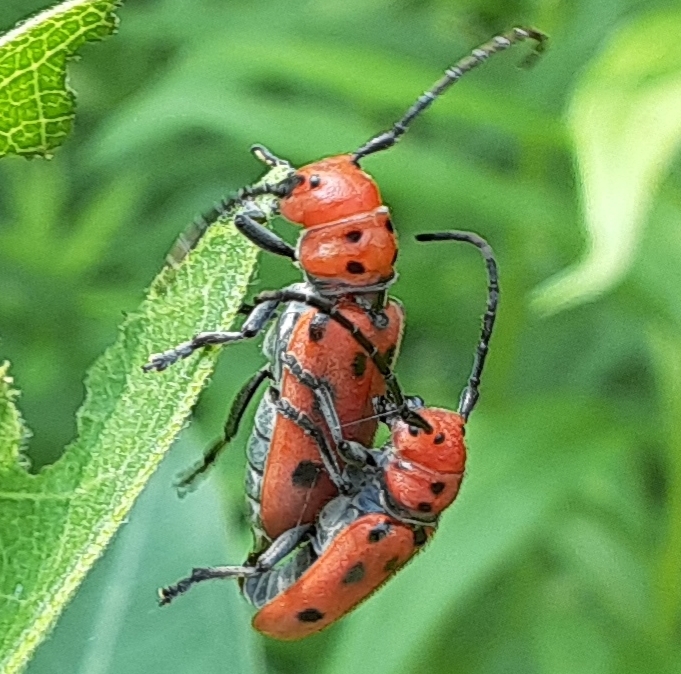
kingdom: Animalia
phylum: Arthropoda
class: Insecta
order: Coleoptera
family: Cerambycidae
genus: Tetraopes
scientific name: Tetraopes tetrophthalmus
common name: Red milkweed beetle
